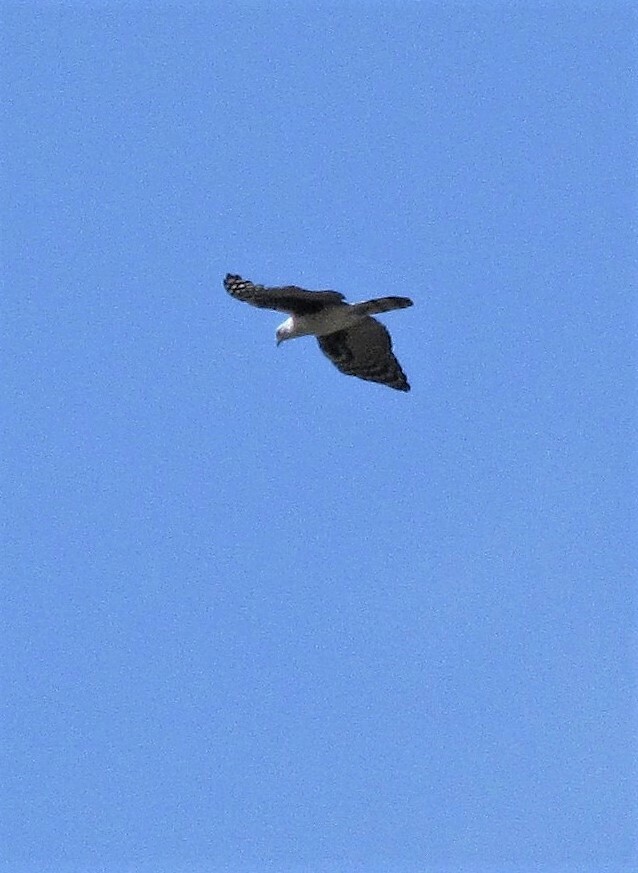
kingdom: Animalia
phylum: Chordata
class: Aves
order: Accipitriformes
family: Accipitridae
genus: Leptodon
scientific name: Leptodon cayanensis
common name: Gray-headed kite
